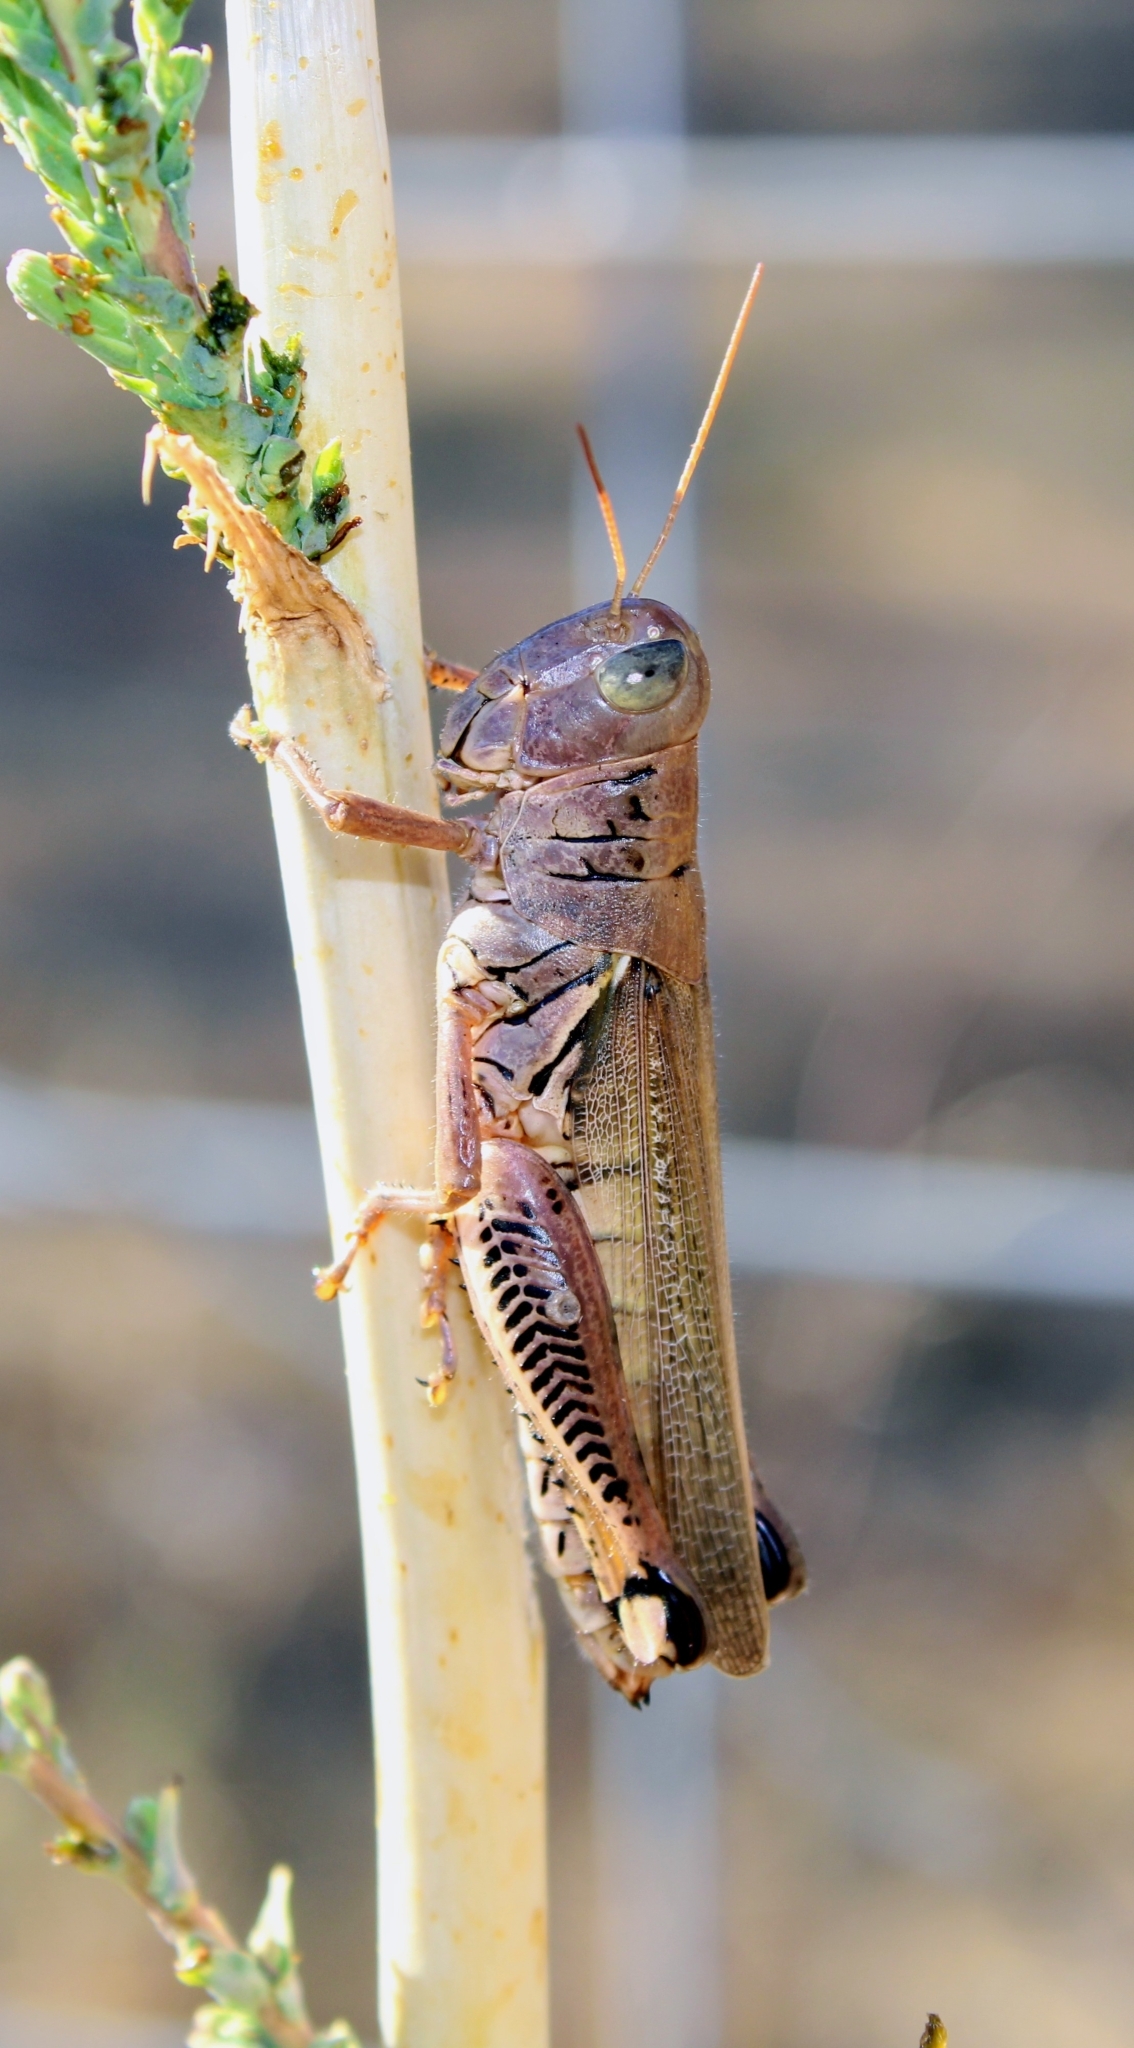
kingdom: Animalia
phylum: Arthropoda
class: Insecta
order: Orthoptera
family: Acrididae
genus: Melanoplus
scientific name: Melanoplus differentialis
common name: Differential grasshopper
